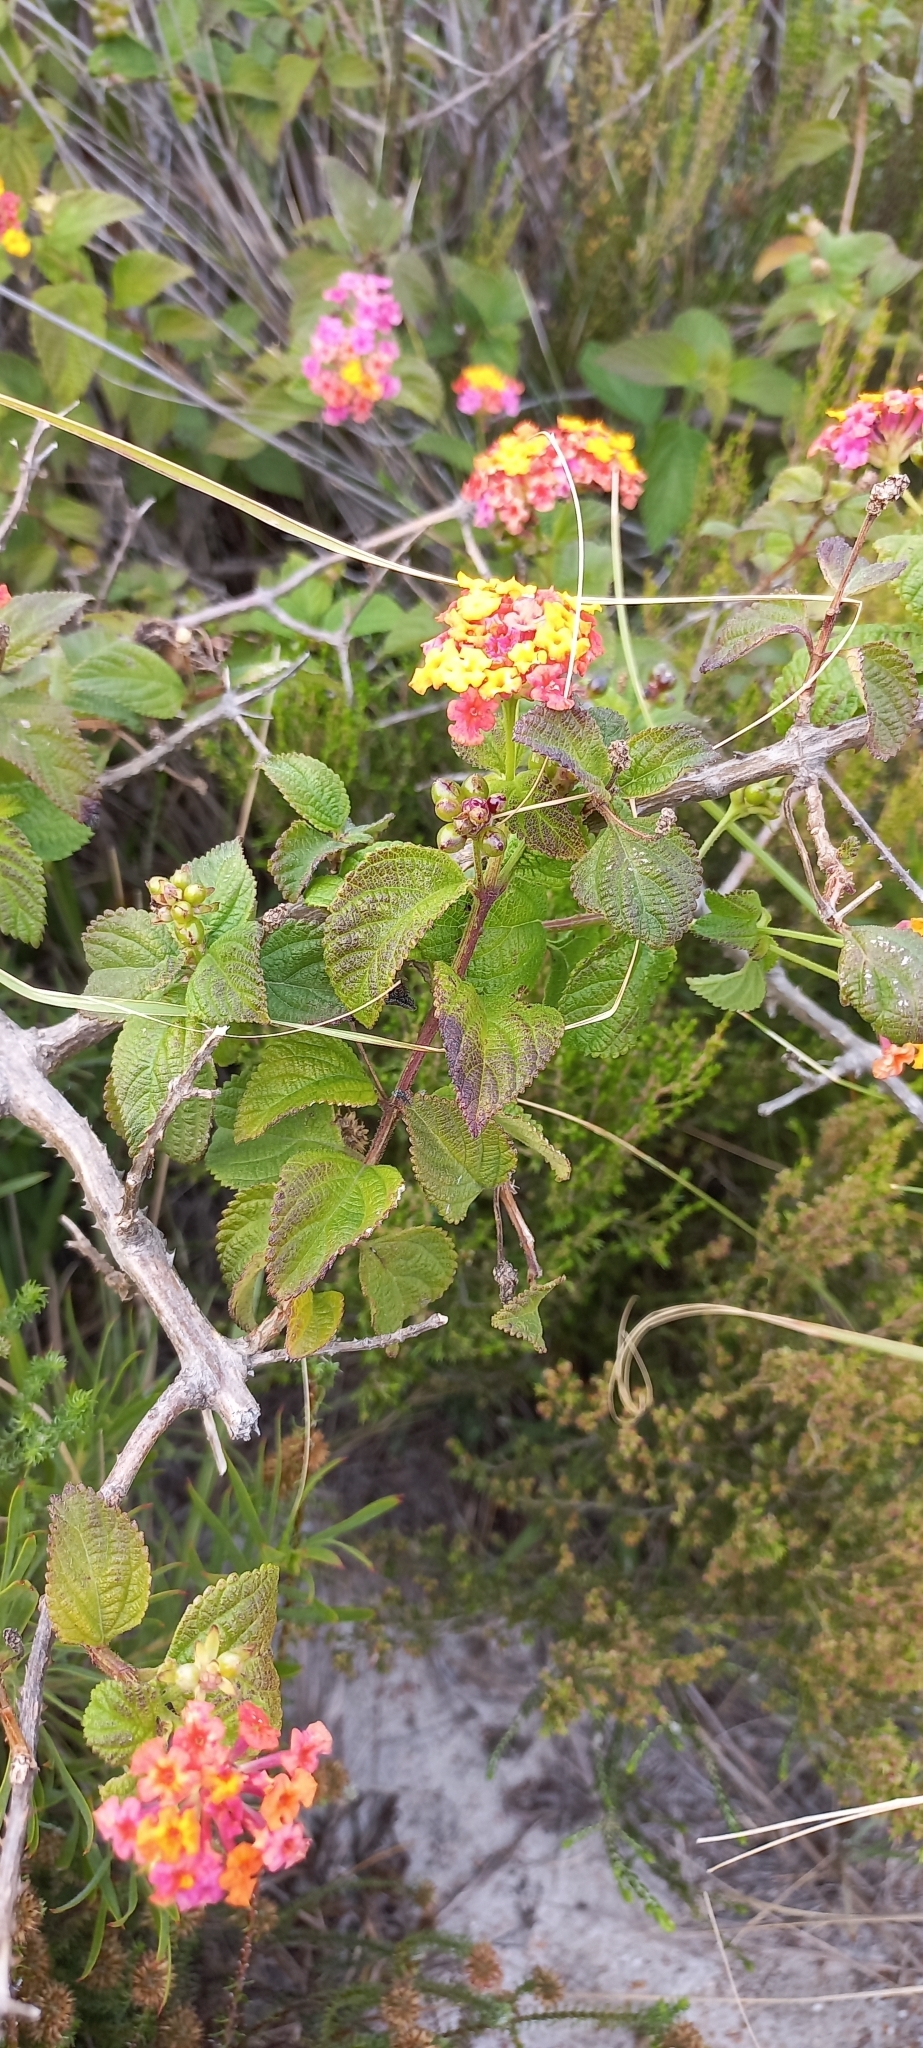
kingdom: Plantae
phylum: Tracheophyta
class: Magnoliopsida
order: Lamiales
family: Verbenaceae
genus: Lantana
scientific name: Lantana camara
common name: Lantana
